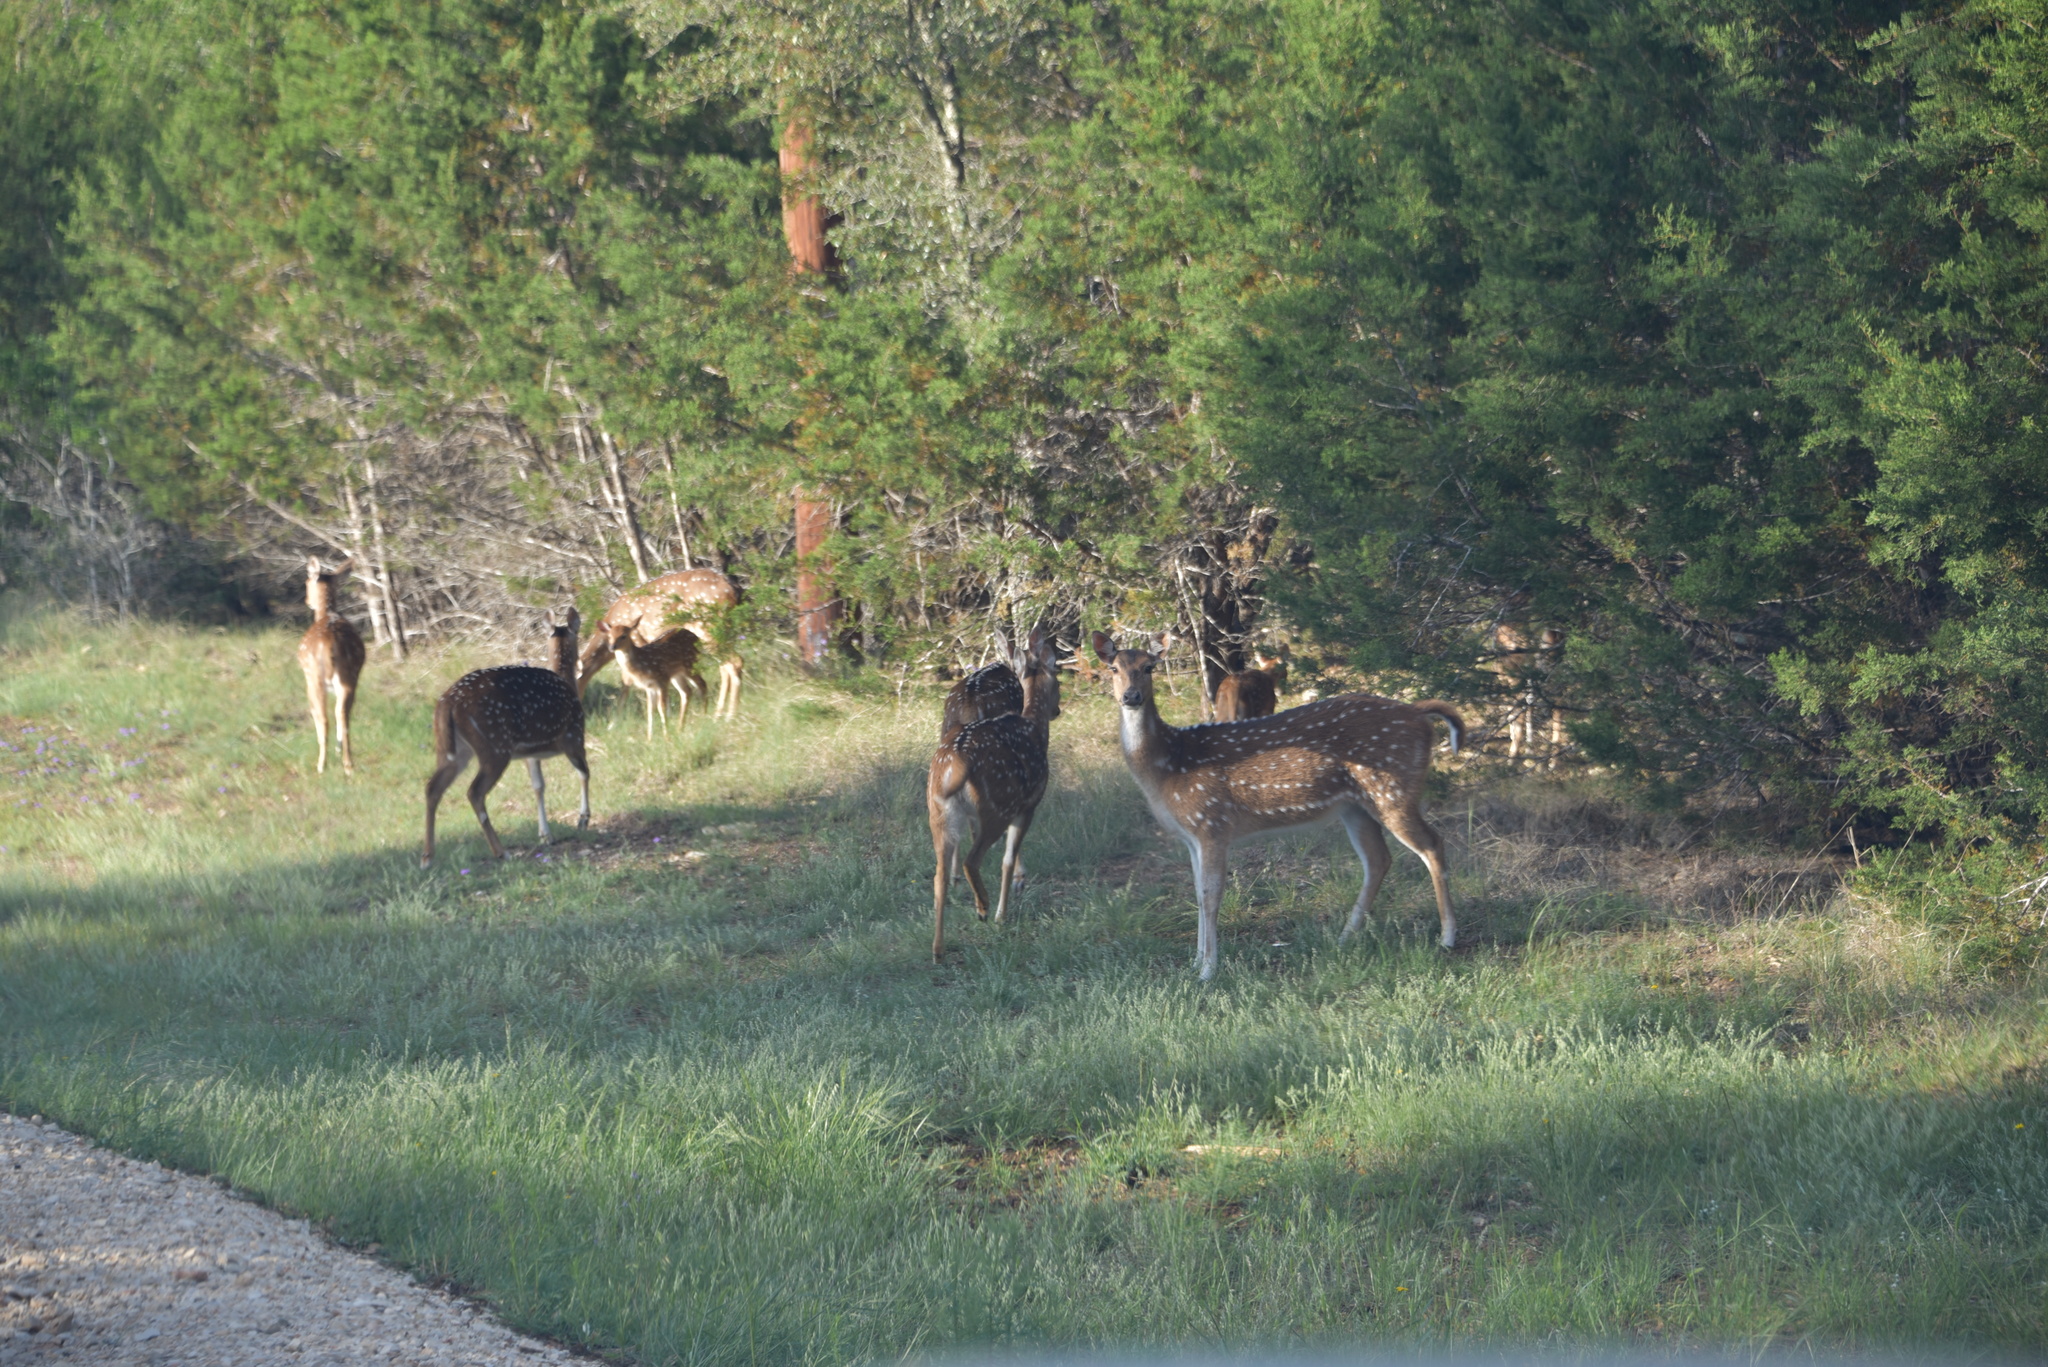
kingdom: Animalia
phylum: Chordata
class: Mammalia
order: Artiodactyla
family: Cervidae
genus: Axis
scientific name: Axis axis
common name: Chital
